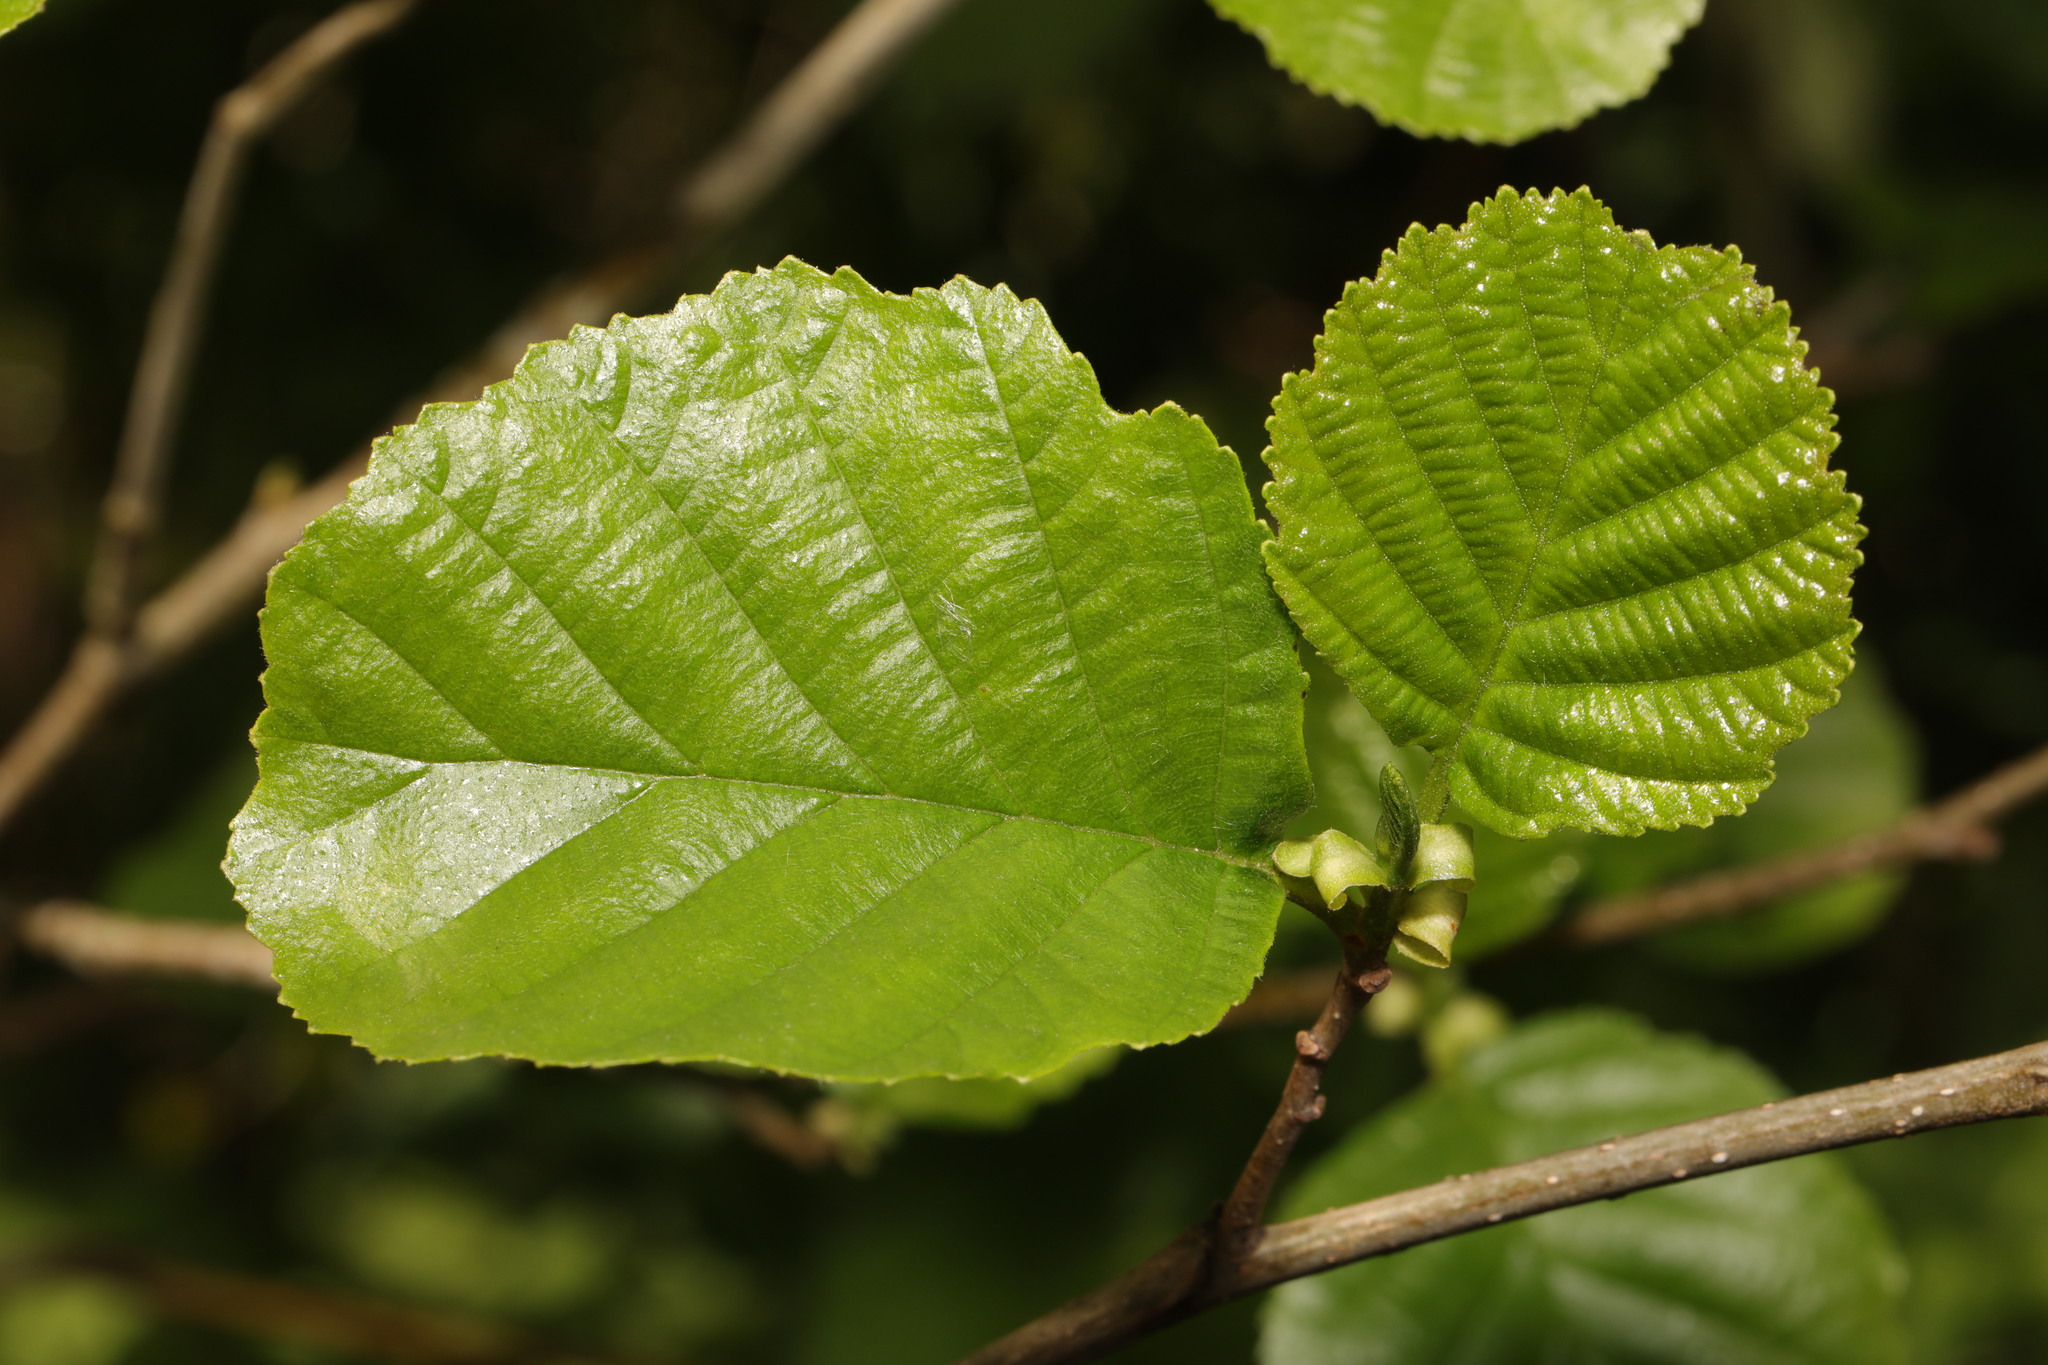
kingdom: Plantae
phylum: Tracheophyta
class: Magnoliopsida
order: Fagales
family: Betulaceae
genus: Alnus
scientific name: Alnus glutinosa
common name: Black alder
